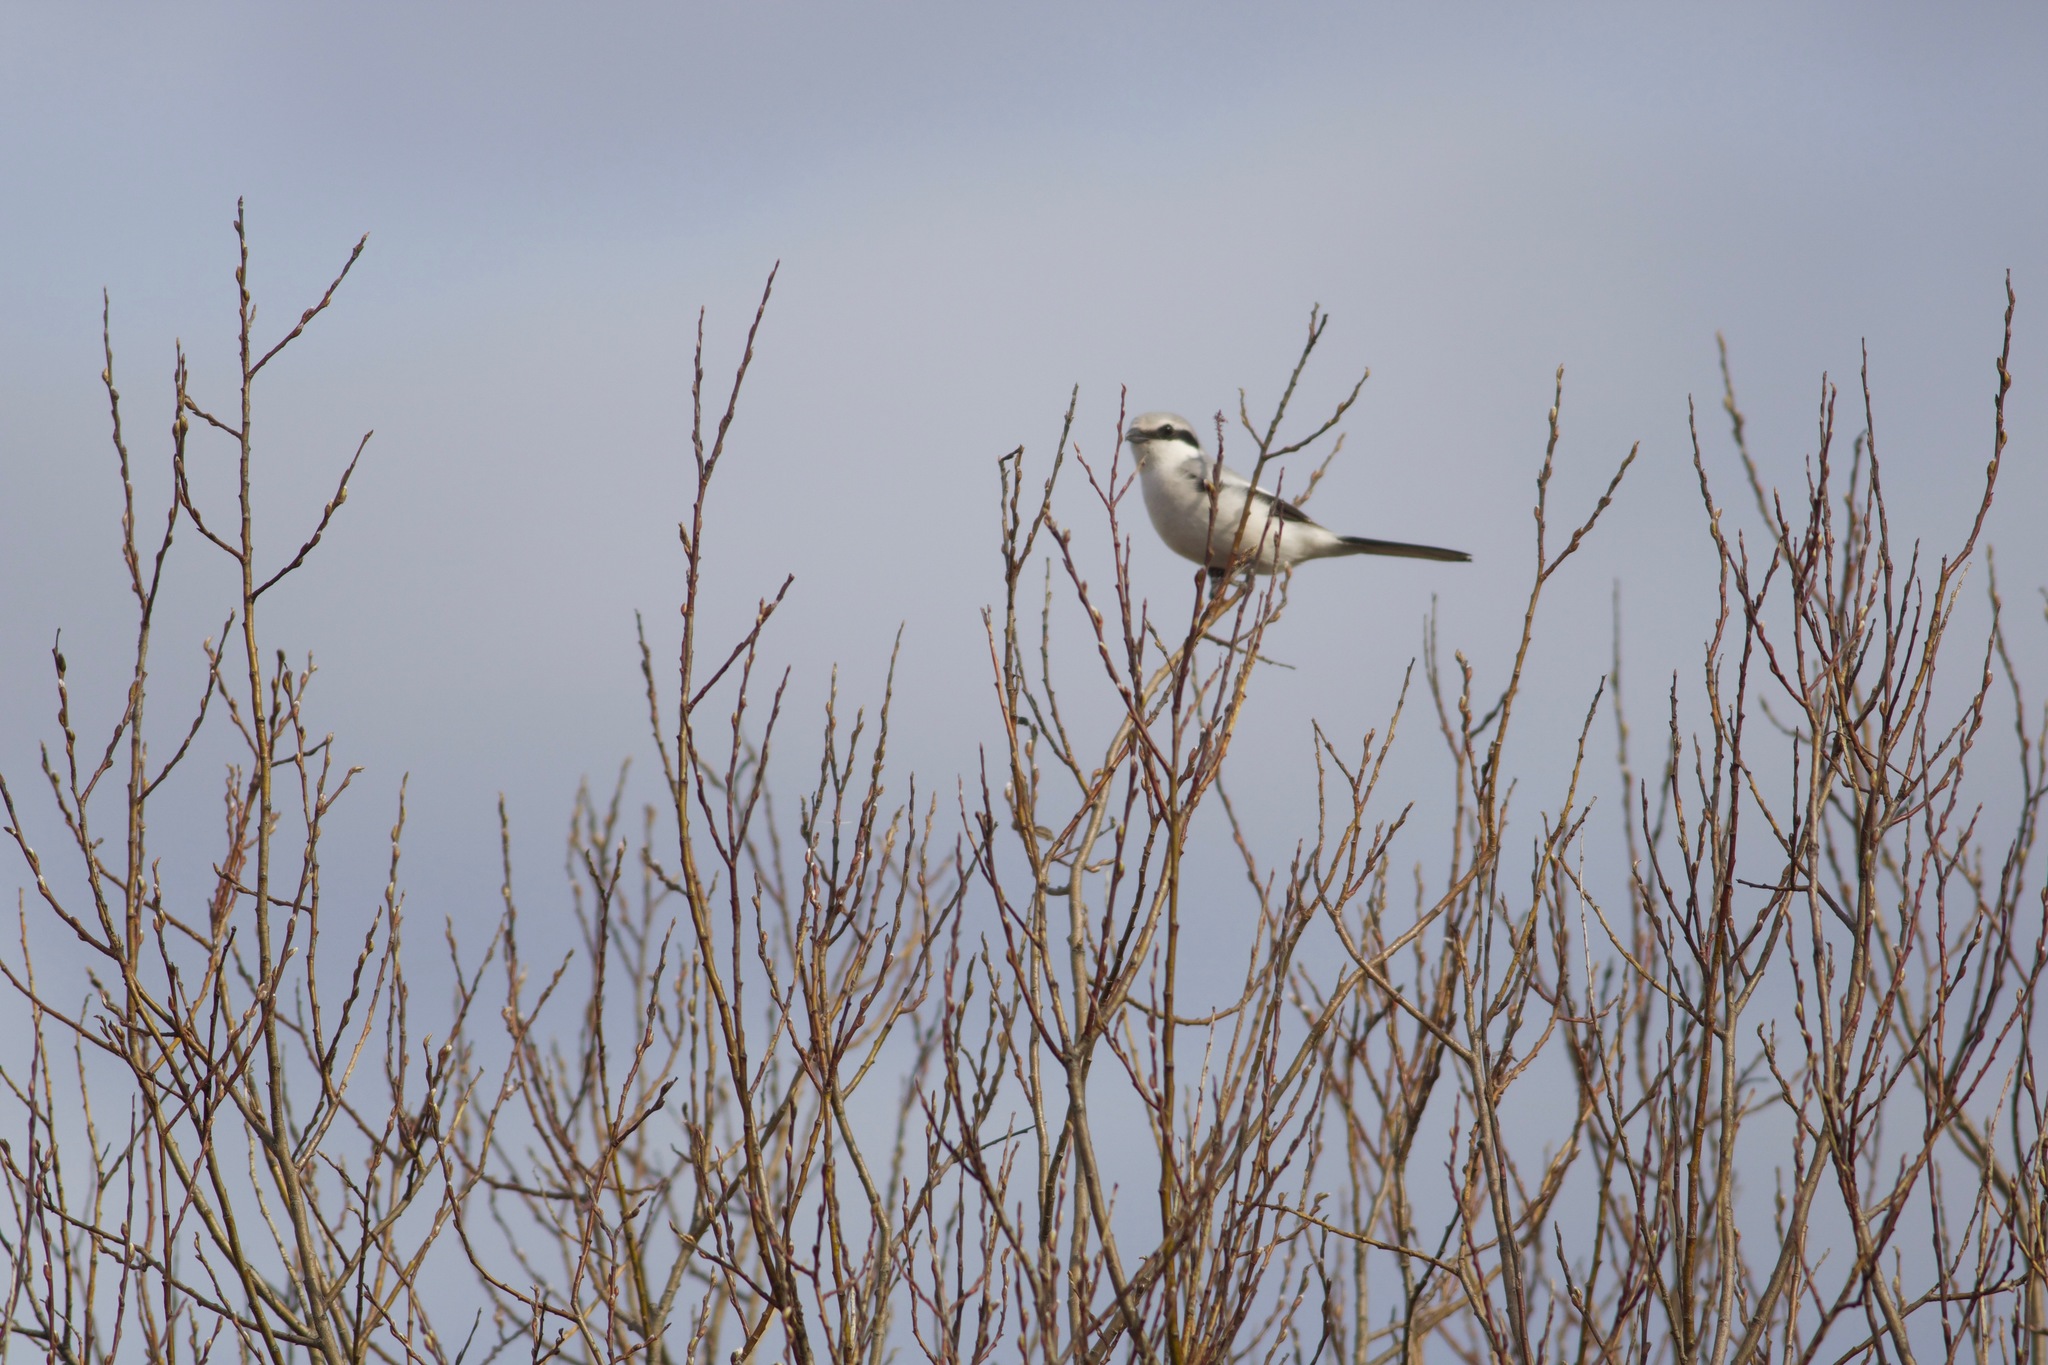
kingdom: Animalia
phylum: Chordata
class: Aves
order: Passeriformes
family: Laniidae
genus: Lanius
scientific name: Lanius excubitor
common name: Great grey shrike
